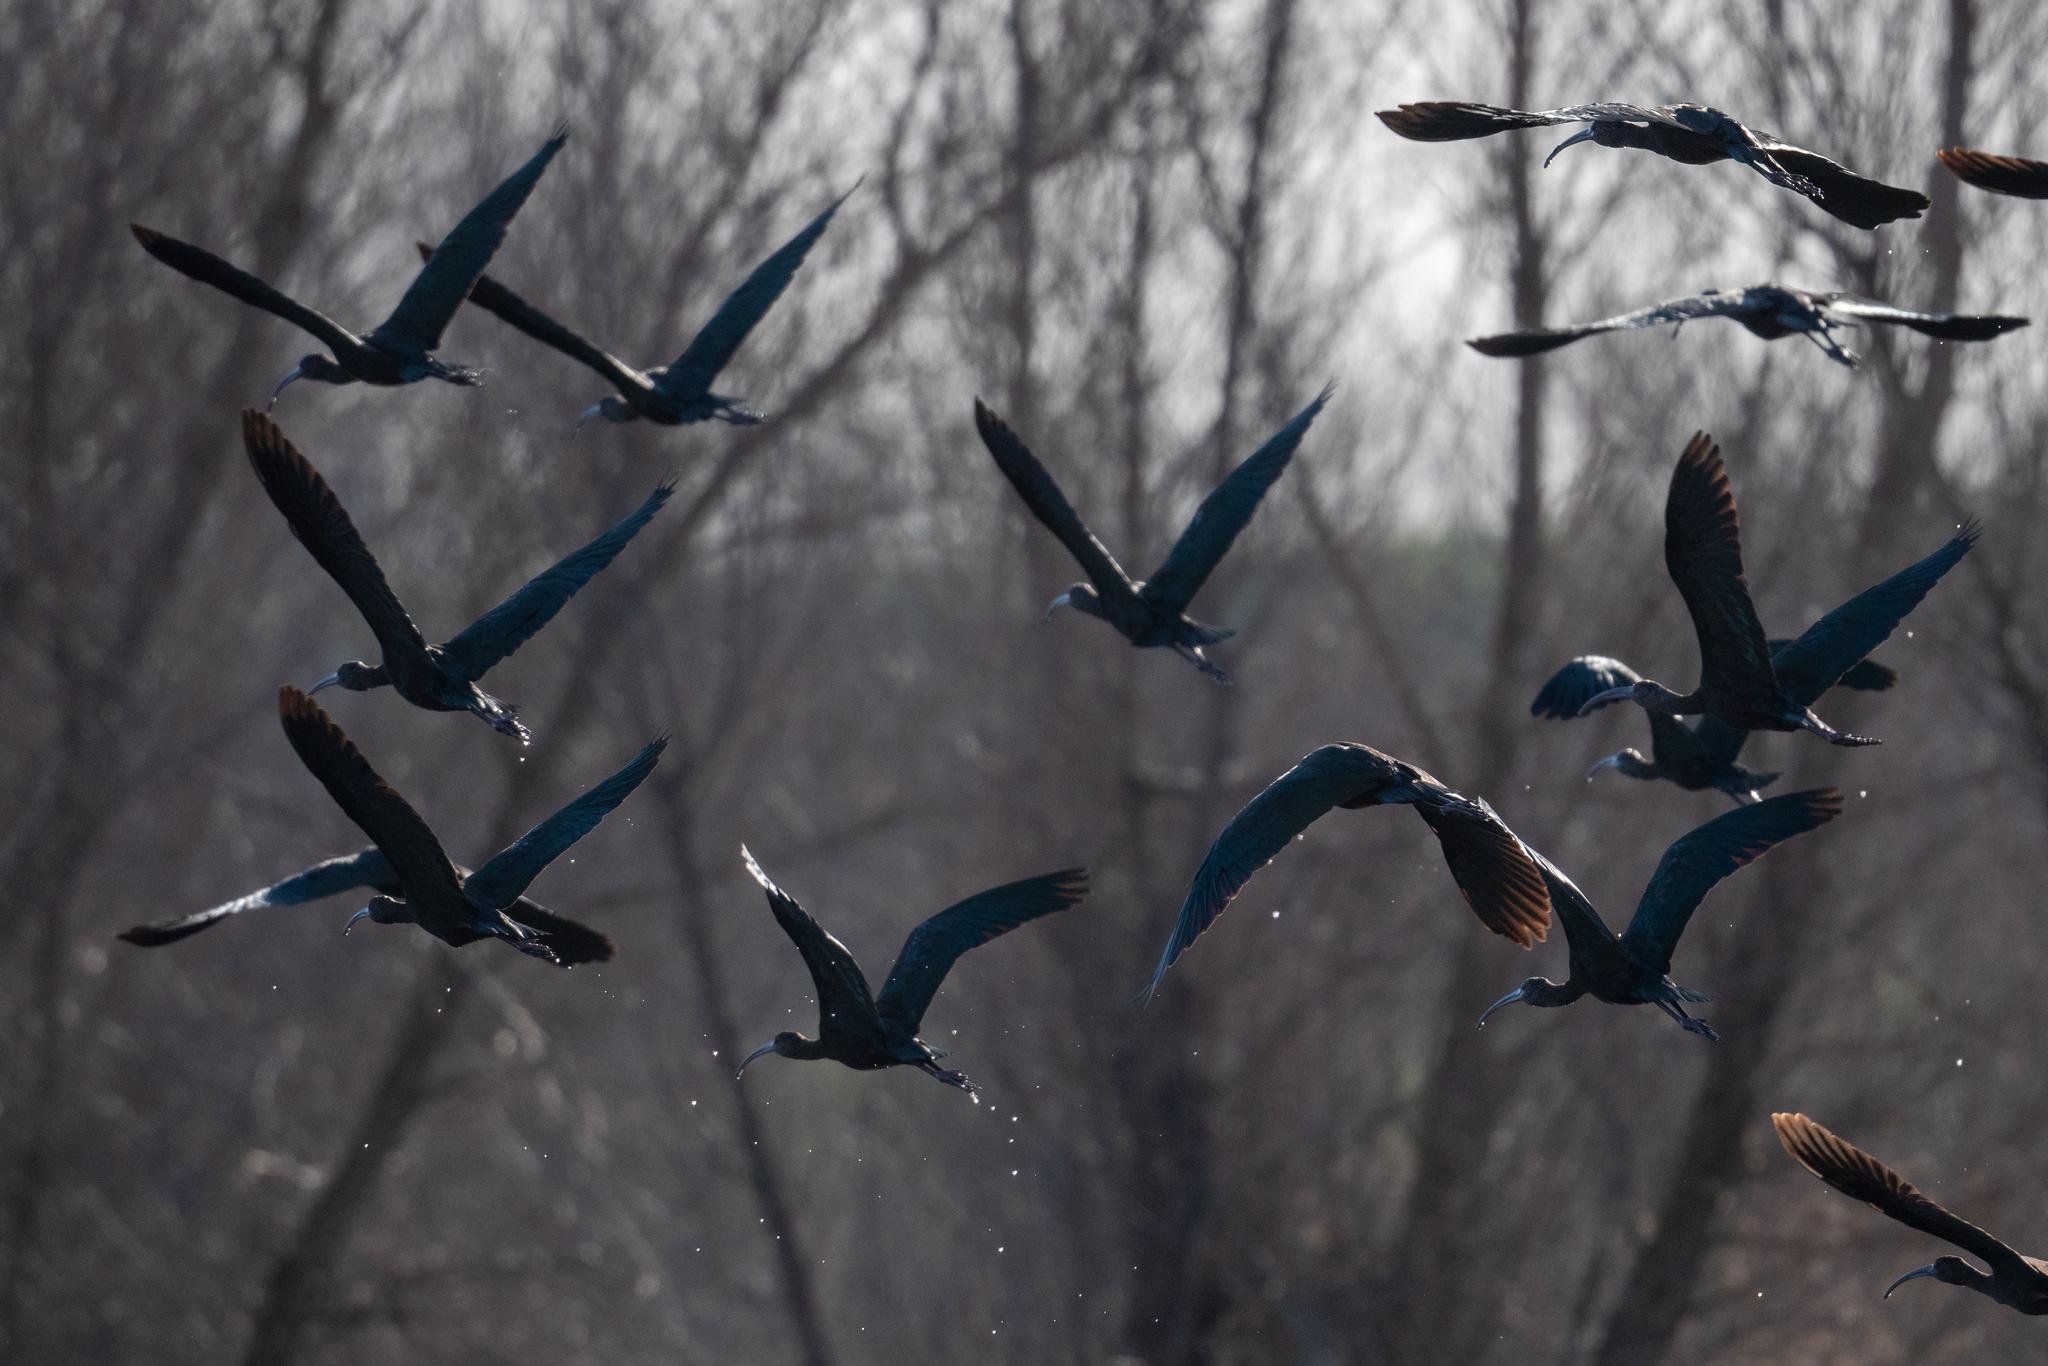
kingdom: Animalia
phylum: Chordata
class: Aves
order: Pelecaniformes
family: Threskiornithidae
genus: Plegadis
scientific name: Plegadis chihi
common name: White-faced ibis
